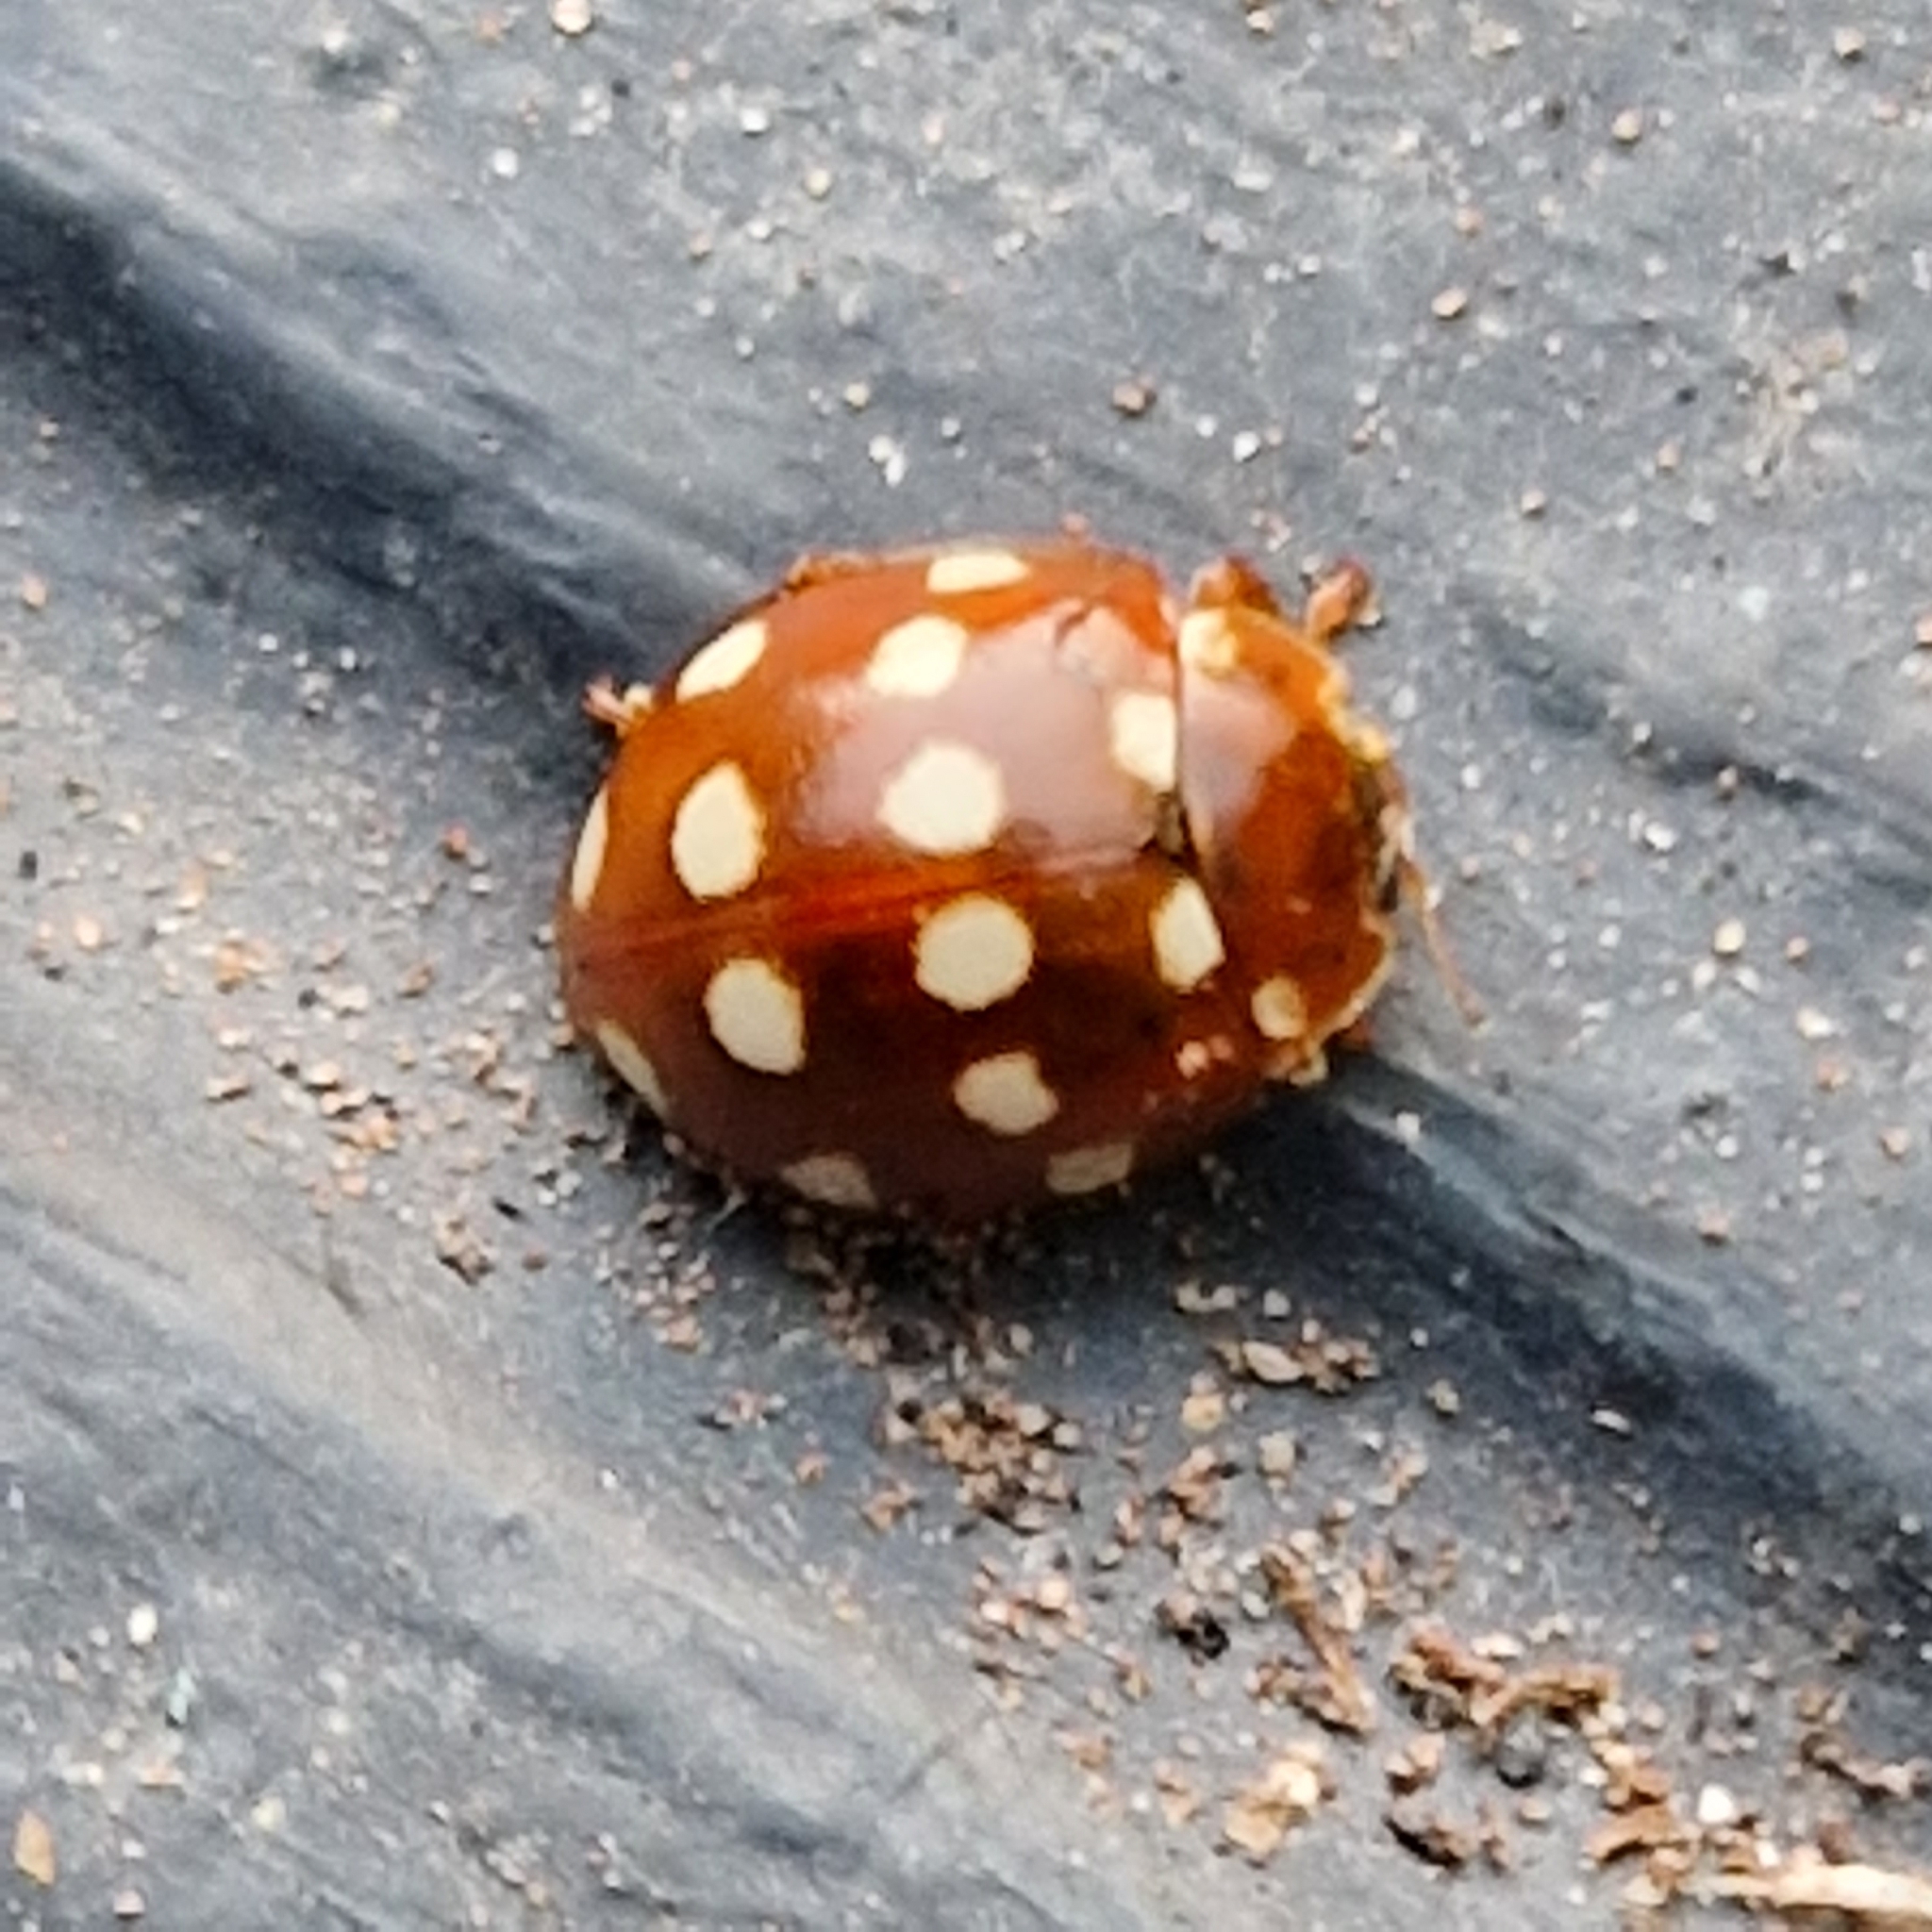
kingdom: Animalia
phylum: Arthropoda
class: Insecta
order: Coleoptera
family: Coccinellidae
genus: Calvia
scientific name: Calvia quatuordecimguttata
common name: Cream-spot ladybird
